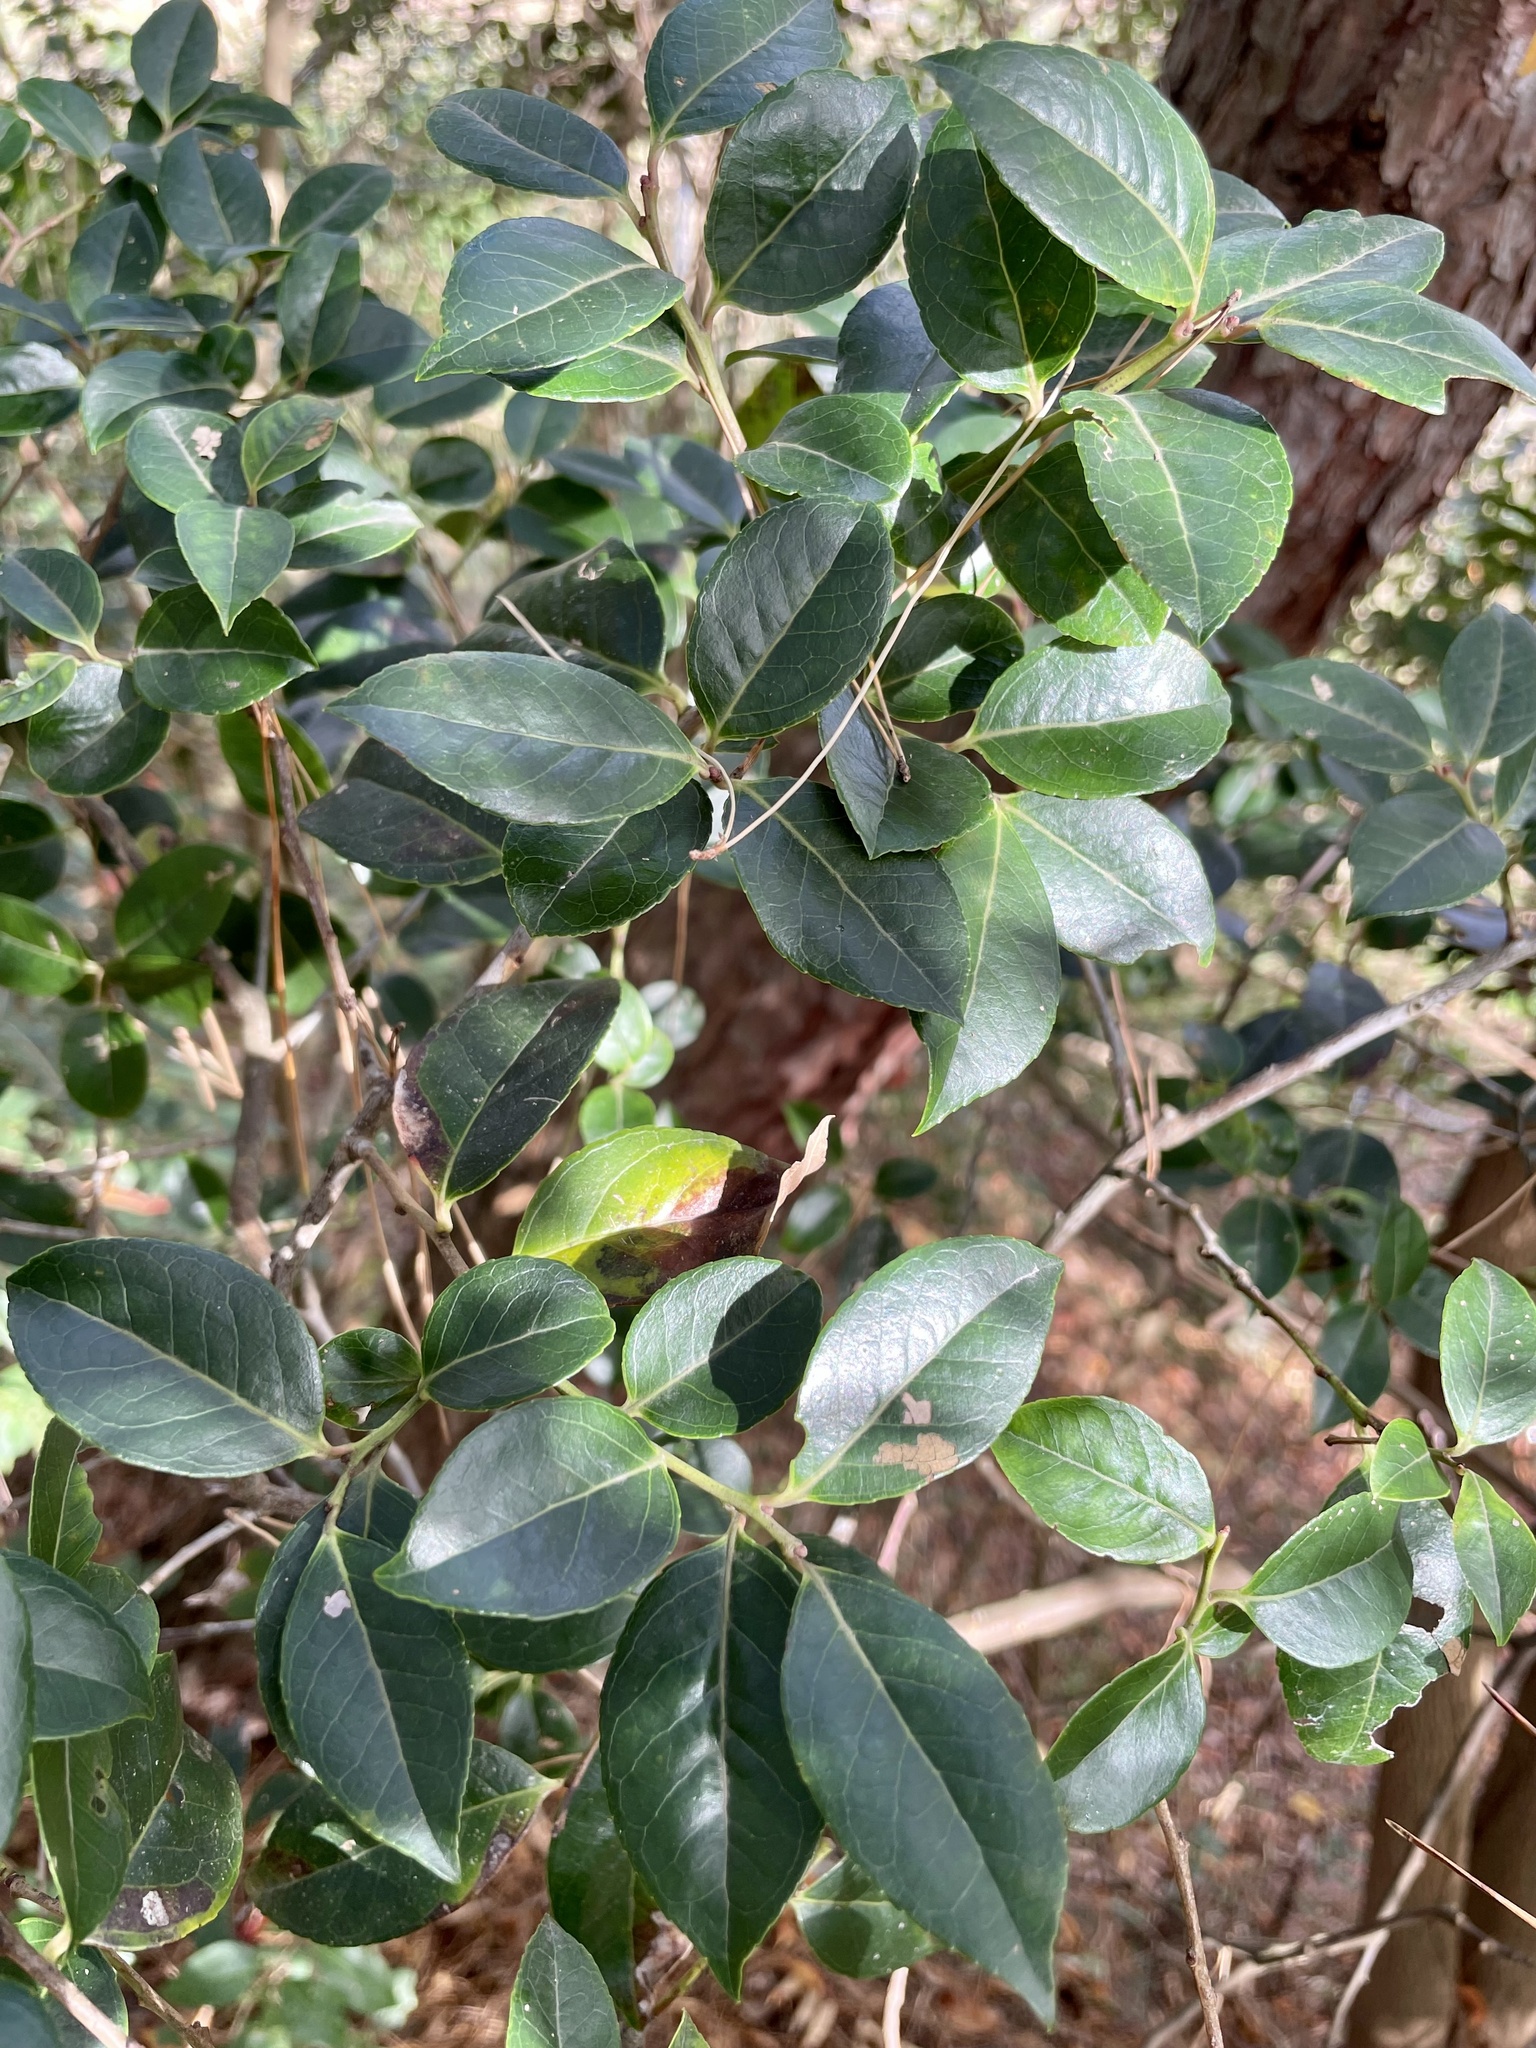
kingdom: Plantae
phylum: Tracheophyta
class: Magnoliopsida
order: Ericales
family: Ericaceae
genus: Vaccinium
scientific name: Vaccinium bracteatum
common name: Sea bilberry
